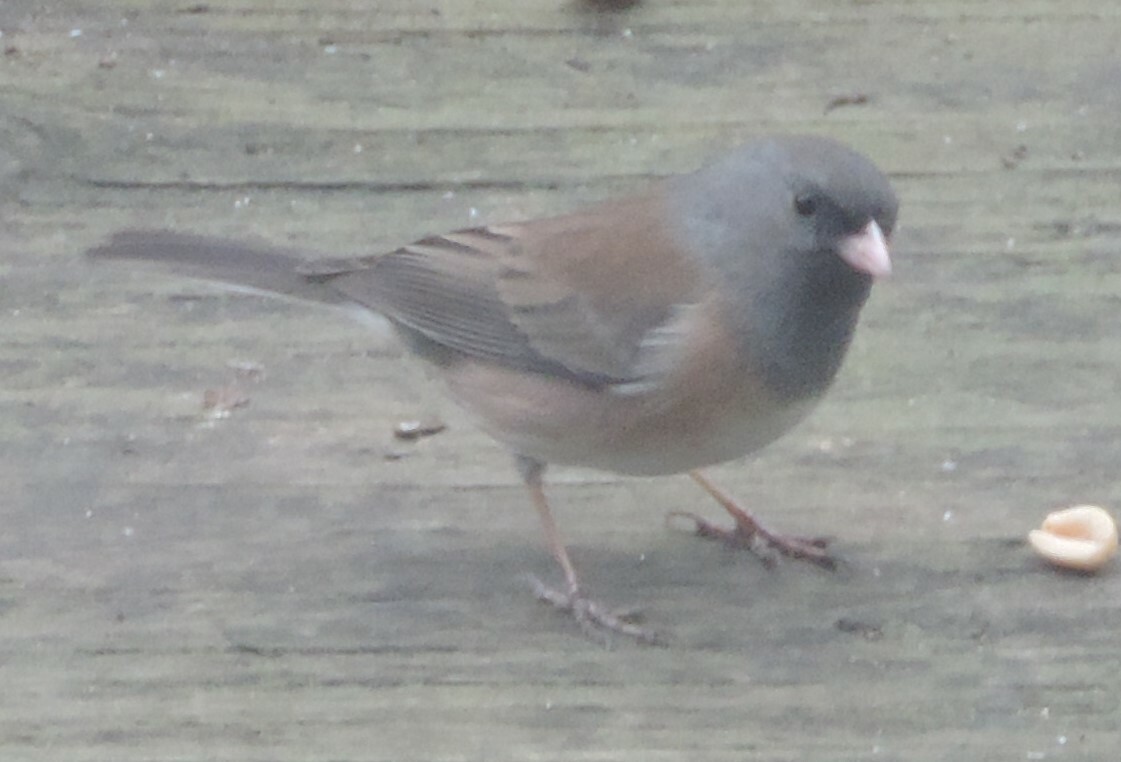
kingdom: Animalia
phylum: Chordata
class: Aves
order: Passeriformes
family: Passerellidae
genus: Junco
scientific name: Junco hyemalis
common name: Dark-eyed junco
